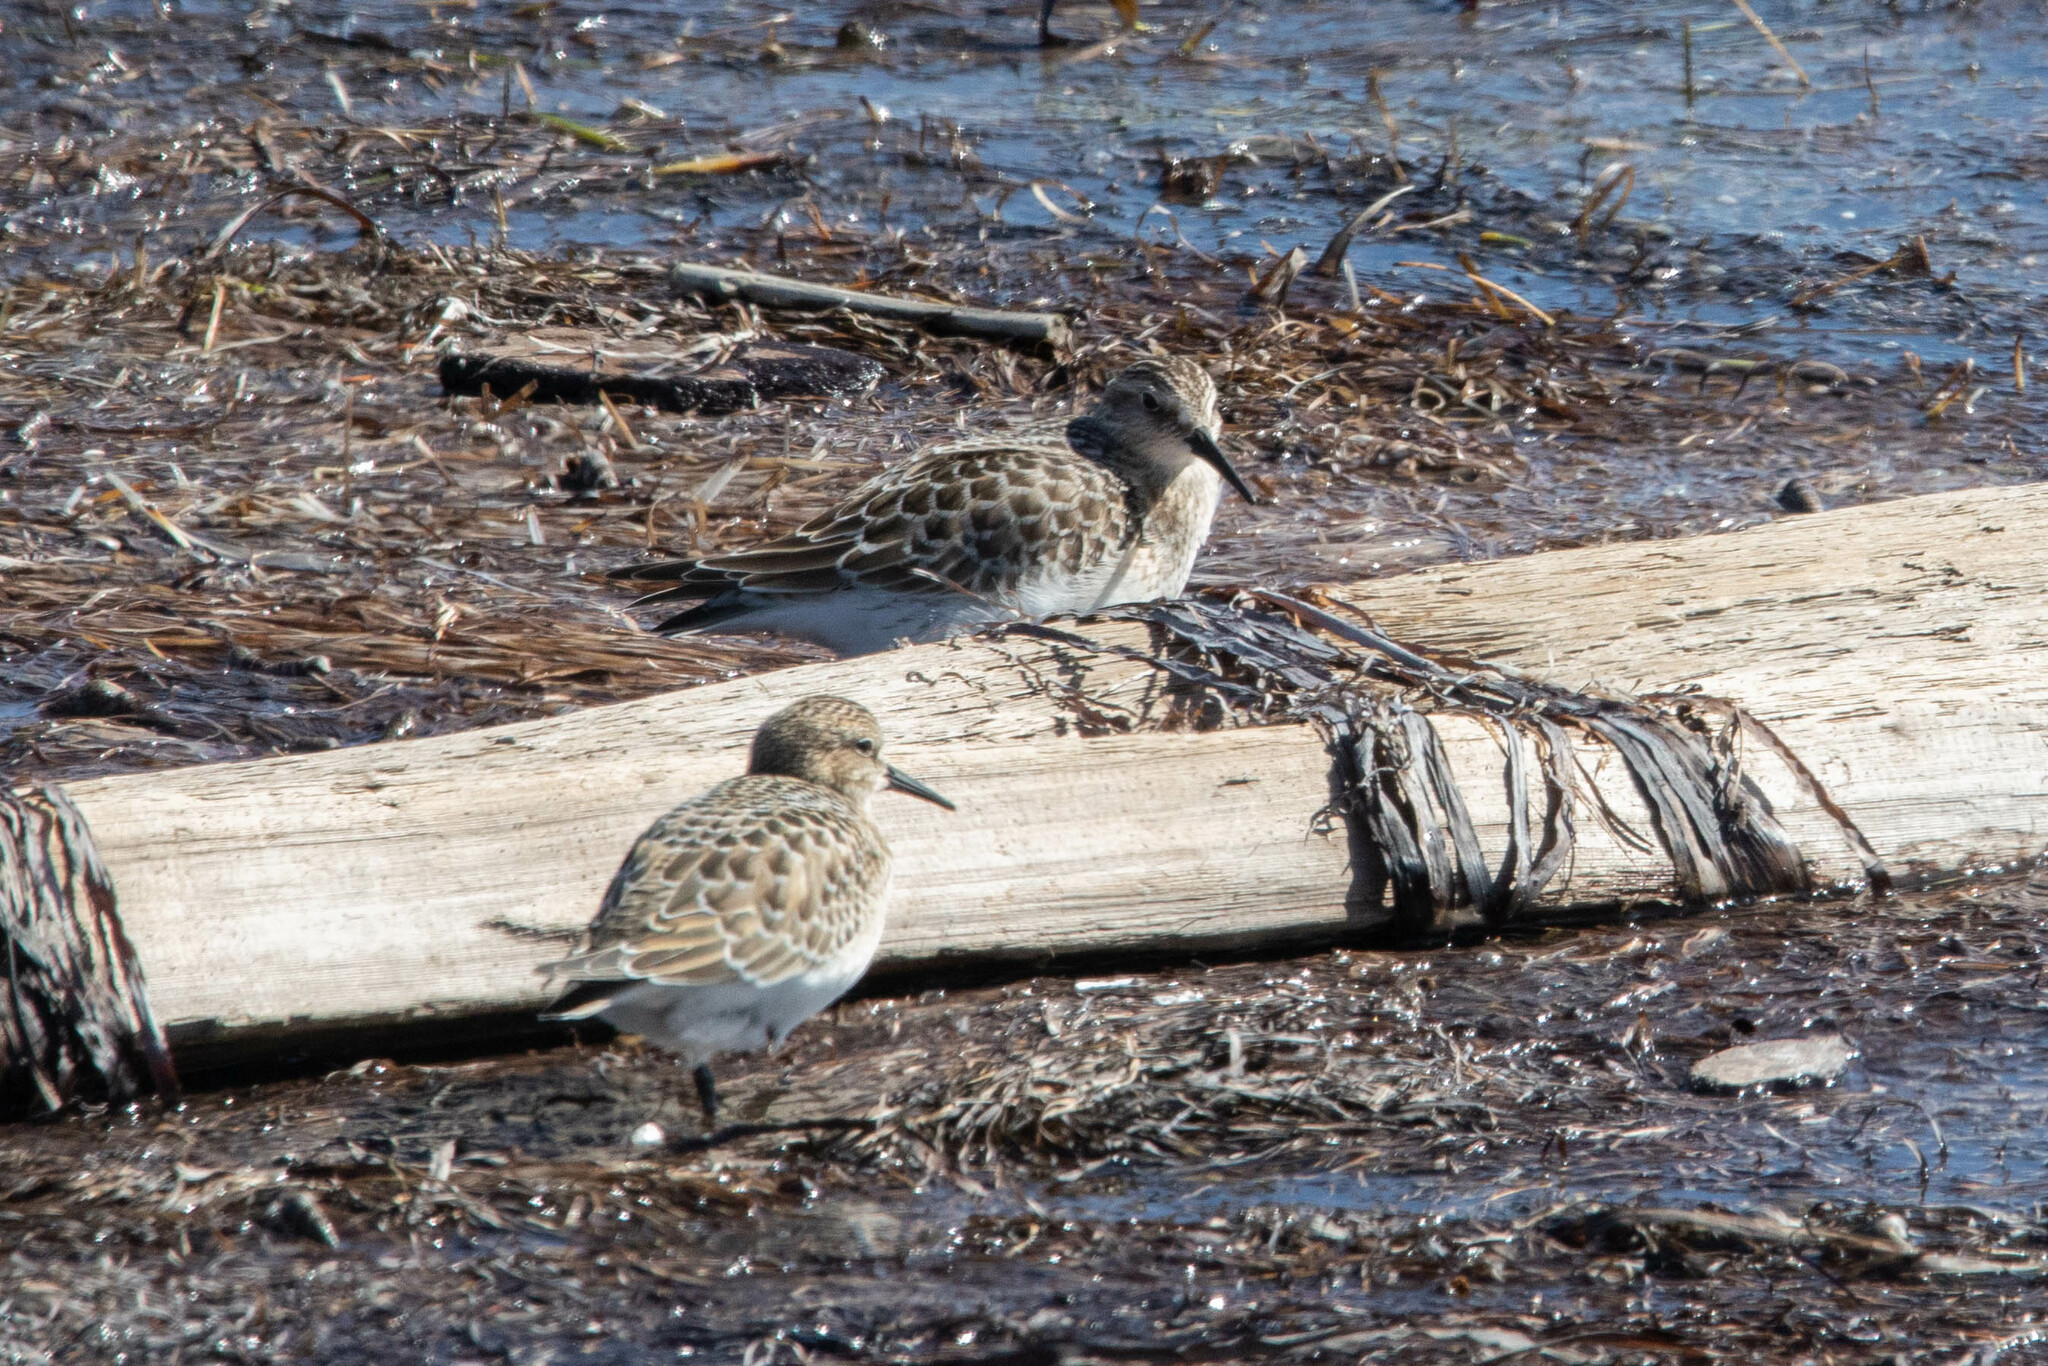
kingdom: Animalia
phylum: Chordata
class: Aves
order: Charadriiformes
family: Scolopacidae
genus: Calidris
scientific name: Calidris bairdii
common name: Baird's sandpiper
